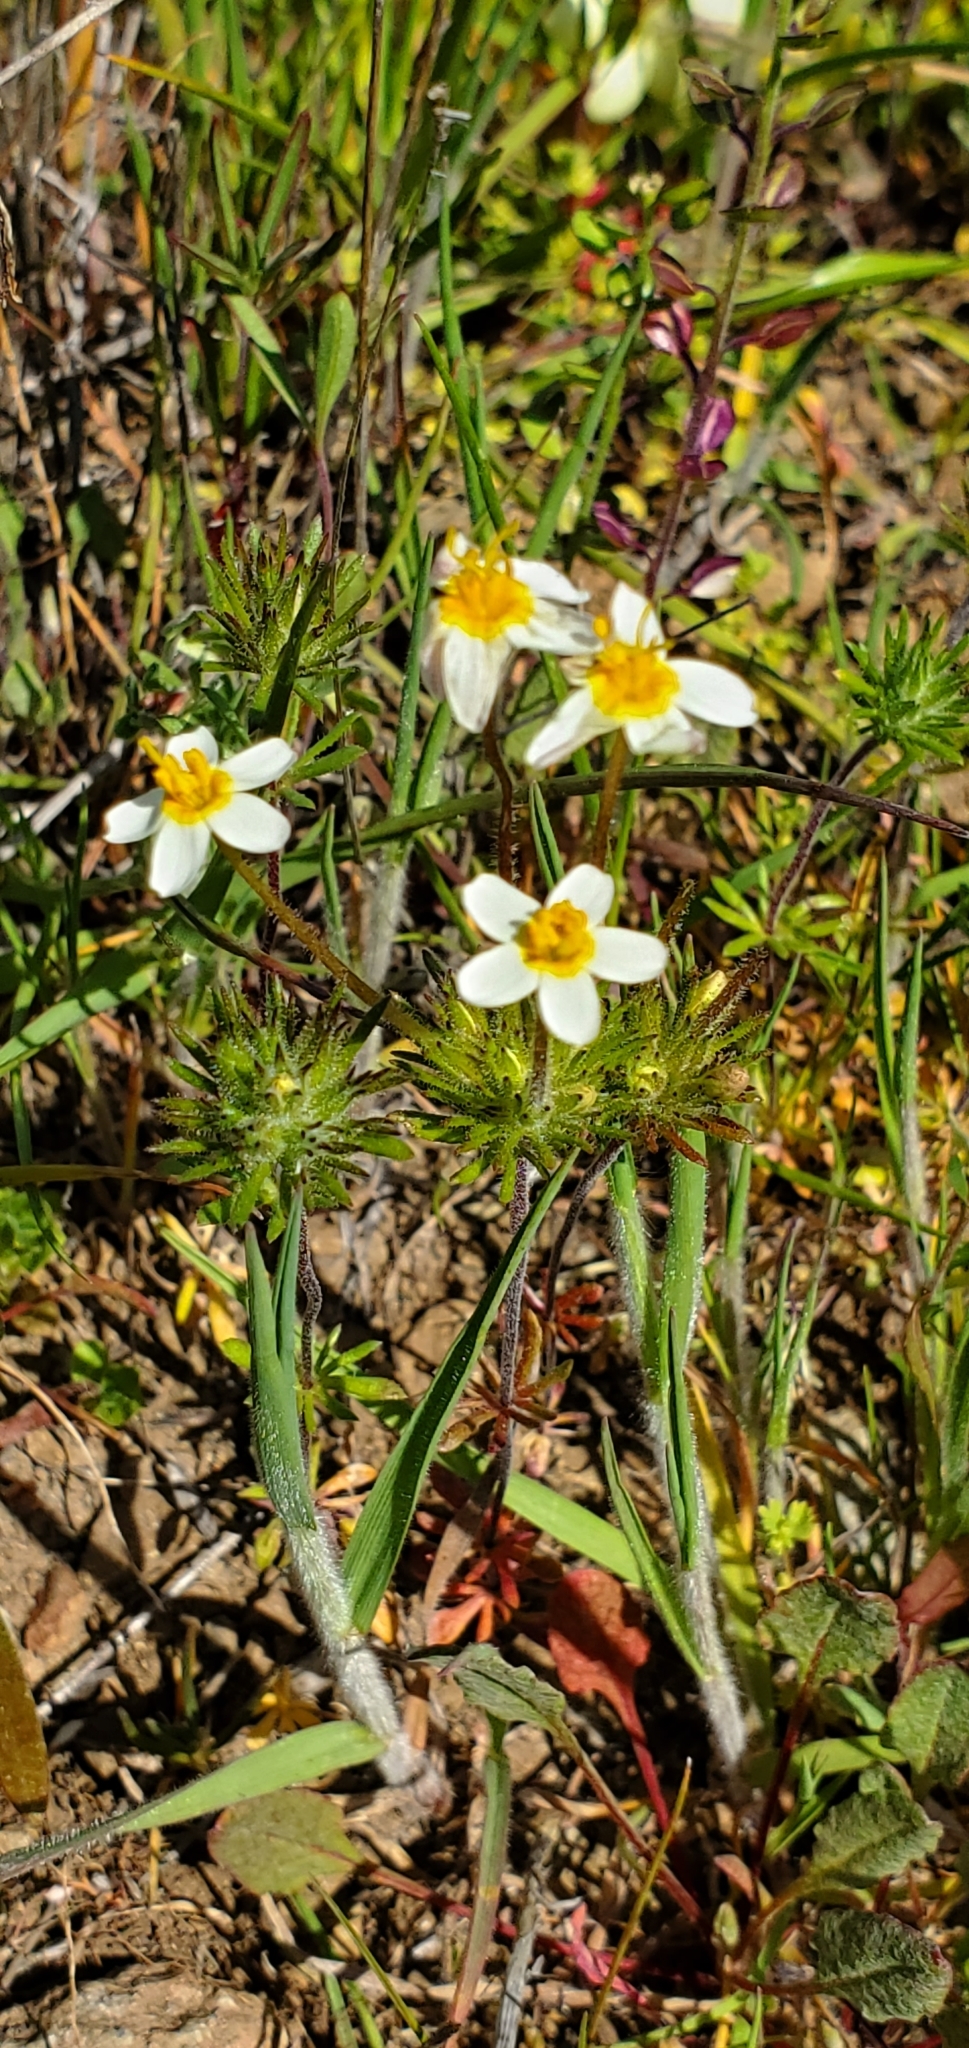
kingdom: Plantae
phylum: Tracheophyta
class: Magnoliopsida
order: Ericales
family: Polemoniaceae
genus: Leptosiphon
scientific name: Leptosiphon parviflorus
